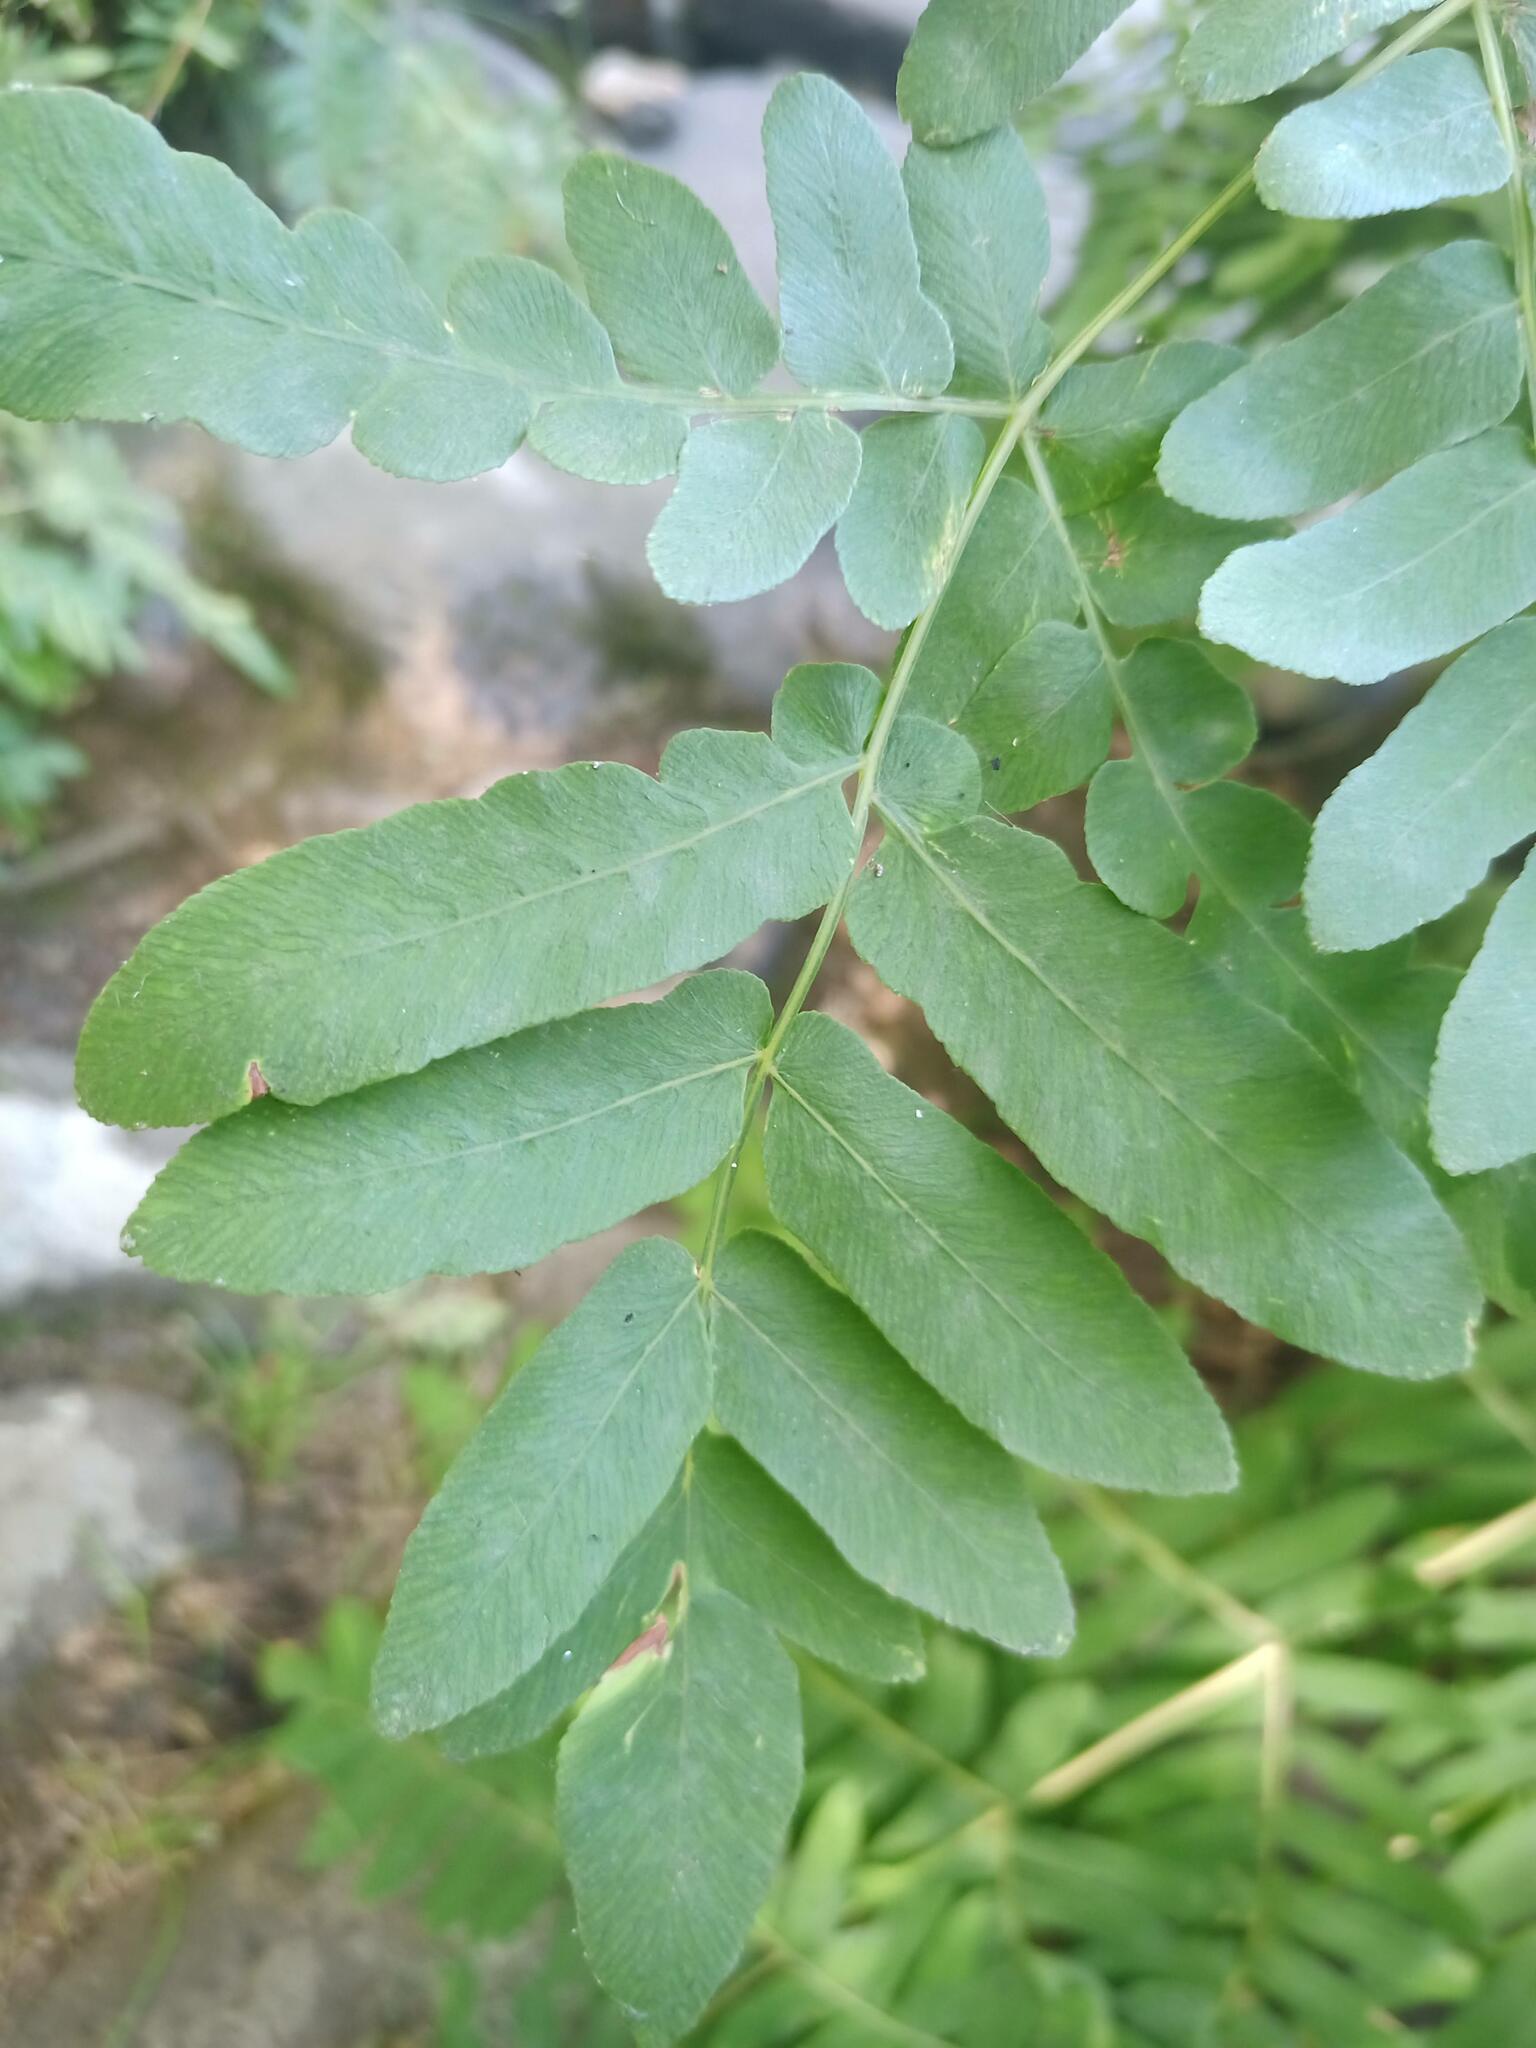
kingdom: Plantae
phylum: Tracheophyta
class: Polypodiopsida
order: Osmundales
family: Osmundaceae
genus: Osmunda
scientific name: Osmunda regalis
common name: Royal fern
